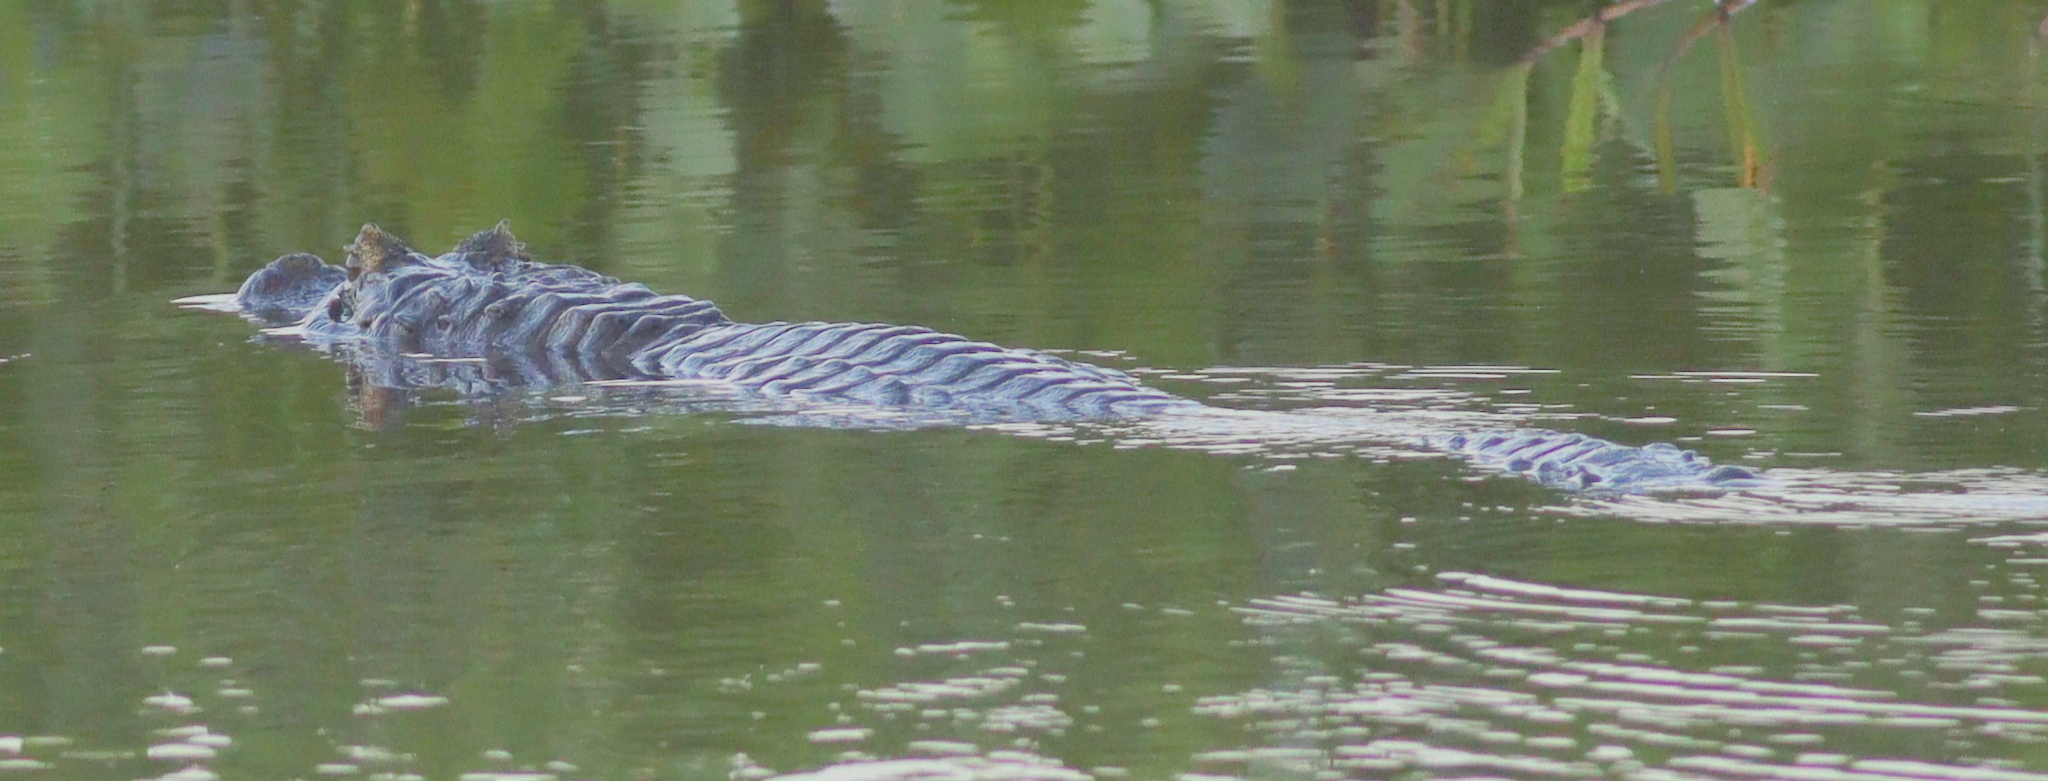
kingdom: Animalia
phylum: Chordata
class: Crocodylia
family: Alligatoridae
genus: Caiman
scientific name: Caiman yacare
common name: Yacare caiman
